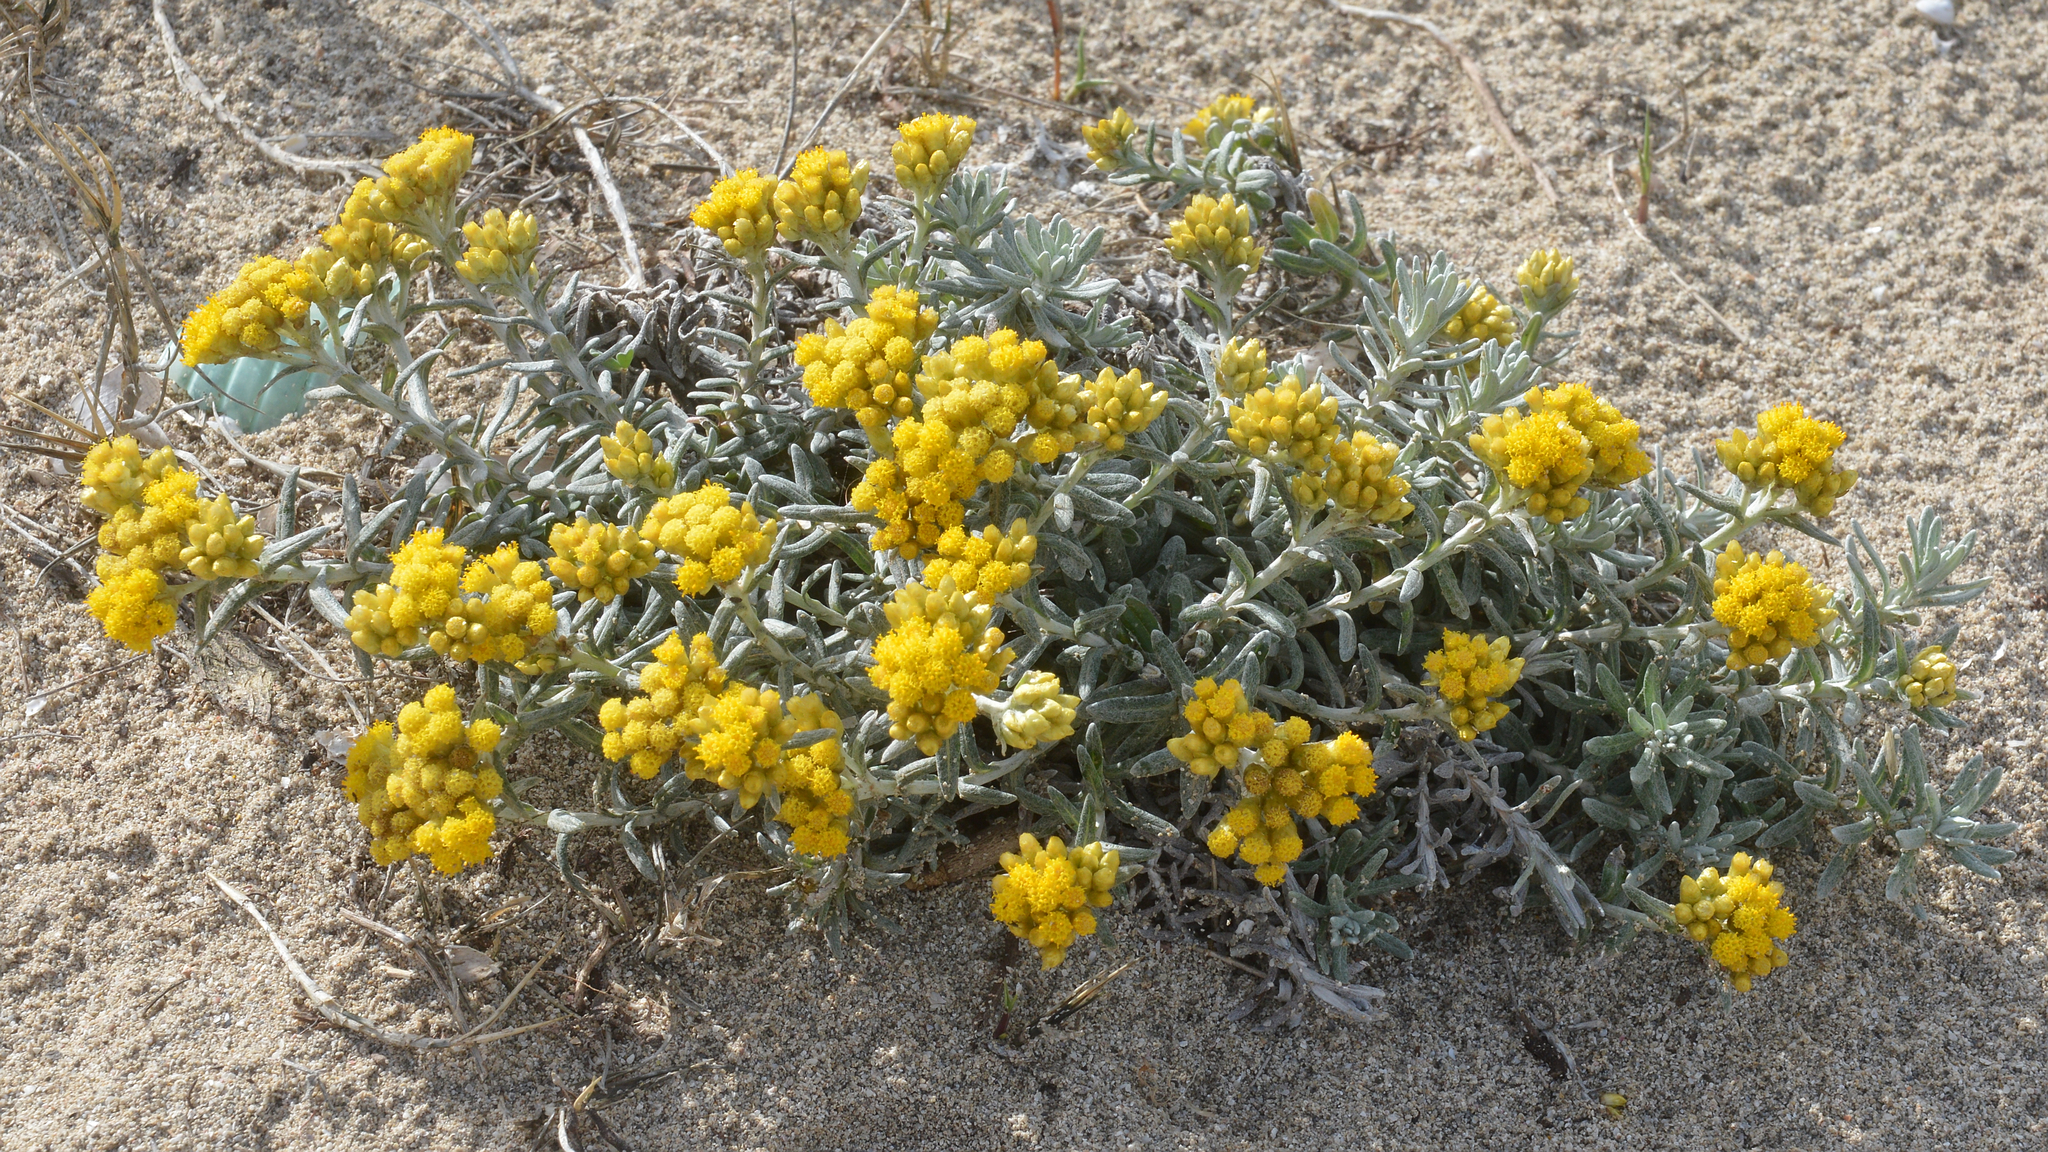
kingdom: Plantae
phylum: Tracheophyta
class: Magnoliopsida
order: Asterales
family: Asteraceae
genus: Helichrysum
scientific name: Helichrysum stoechas
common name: Goldilocks
